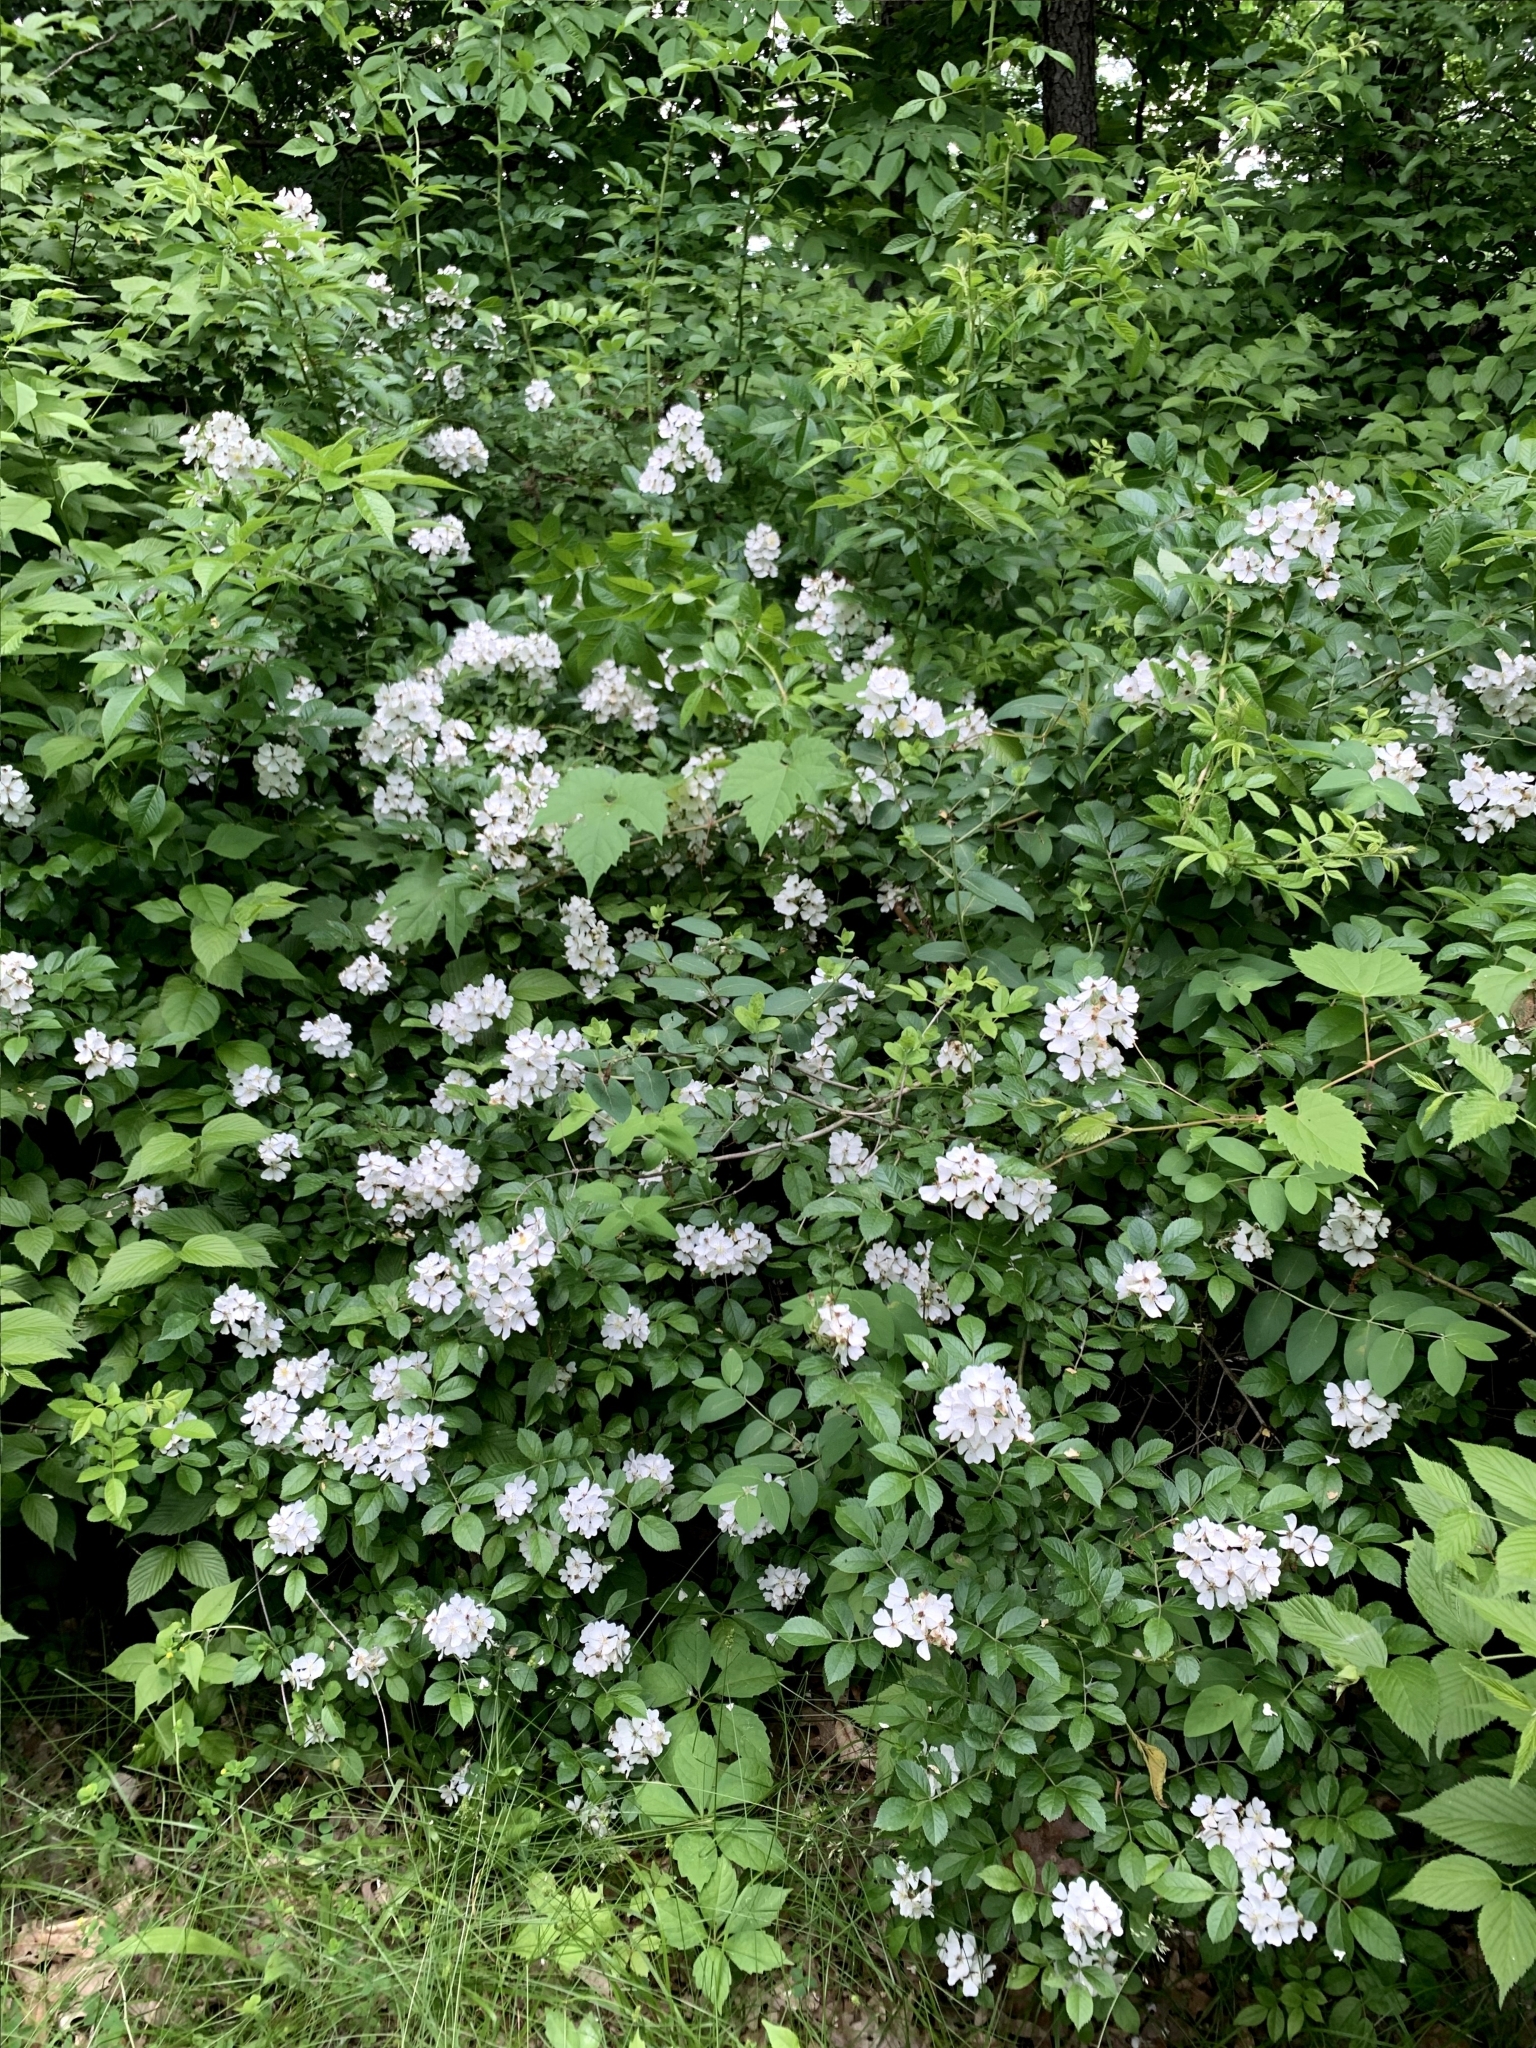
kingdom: Plantae
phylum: Tracheophyta
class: Magnoliopsida
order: Rosales
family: Rosaceae
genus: Rosa
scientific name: Rosa multiflora
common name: Multiflora rose
